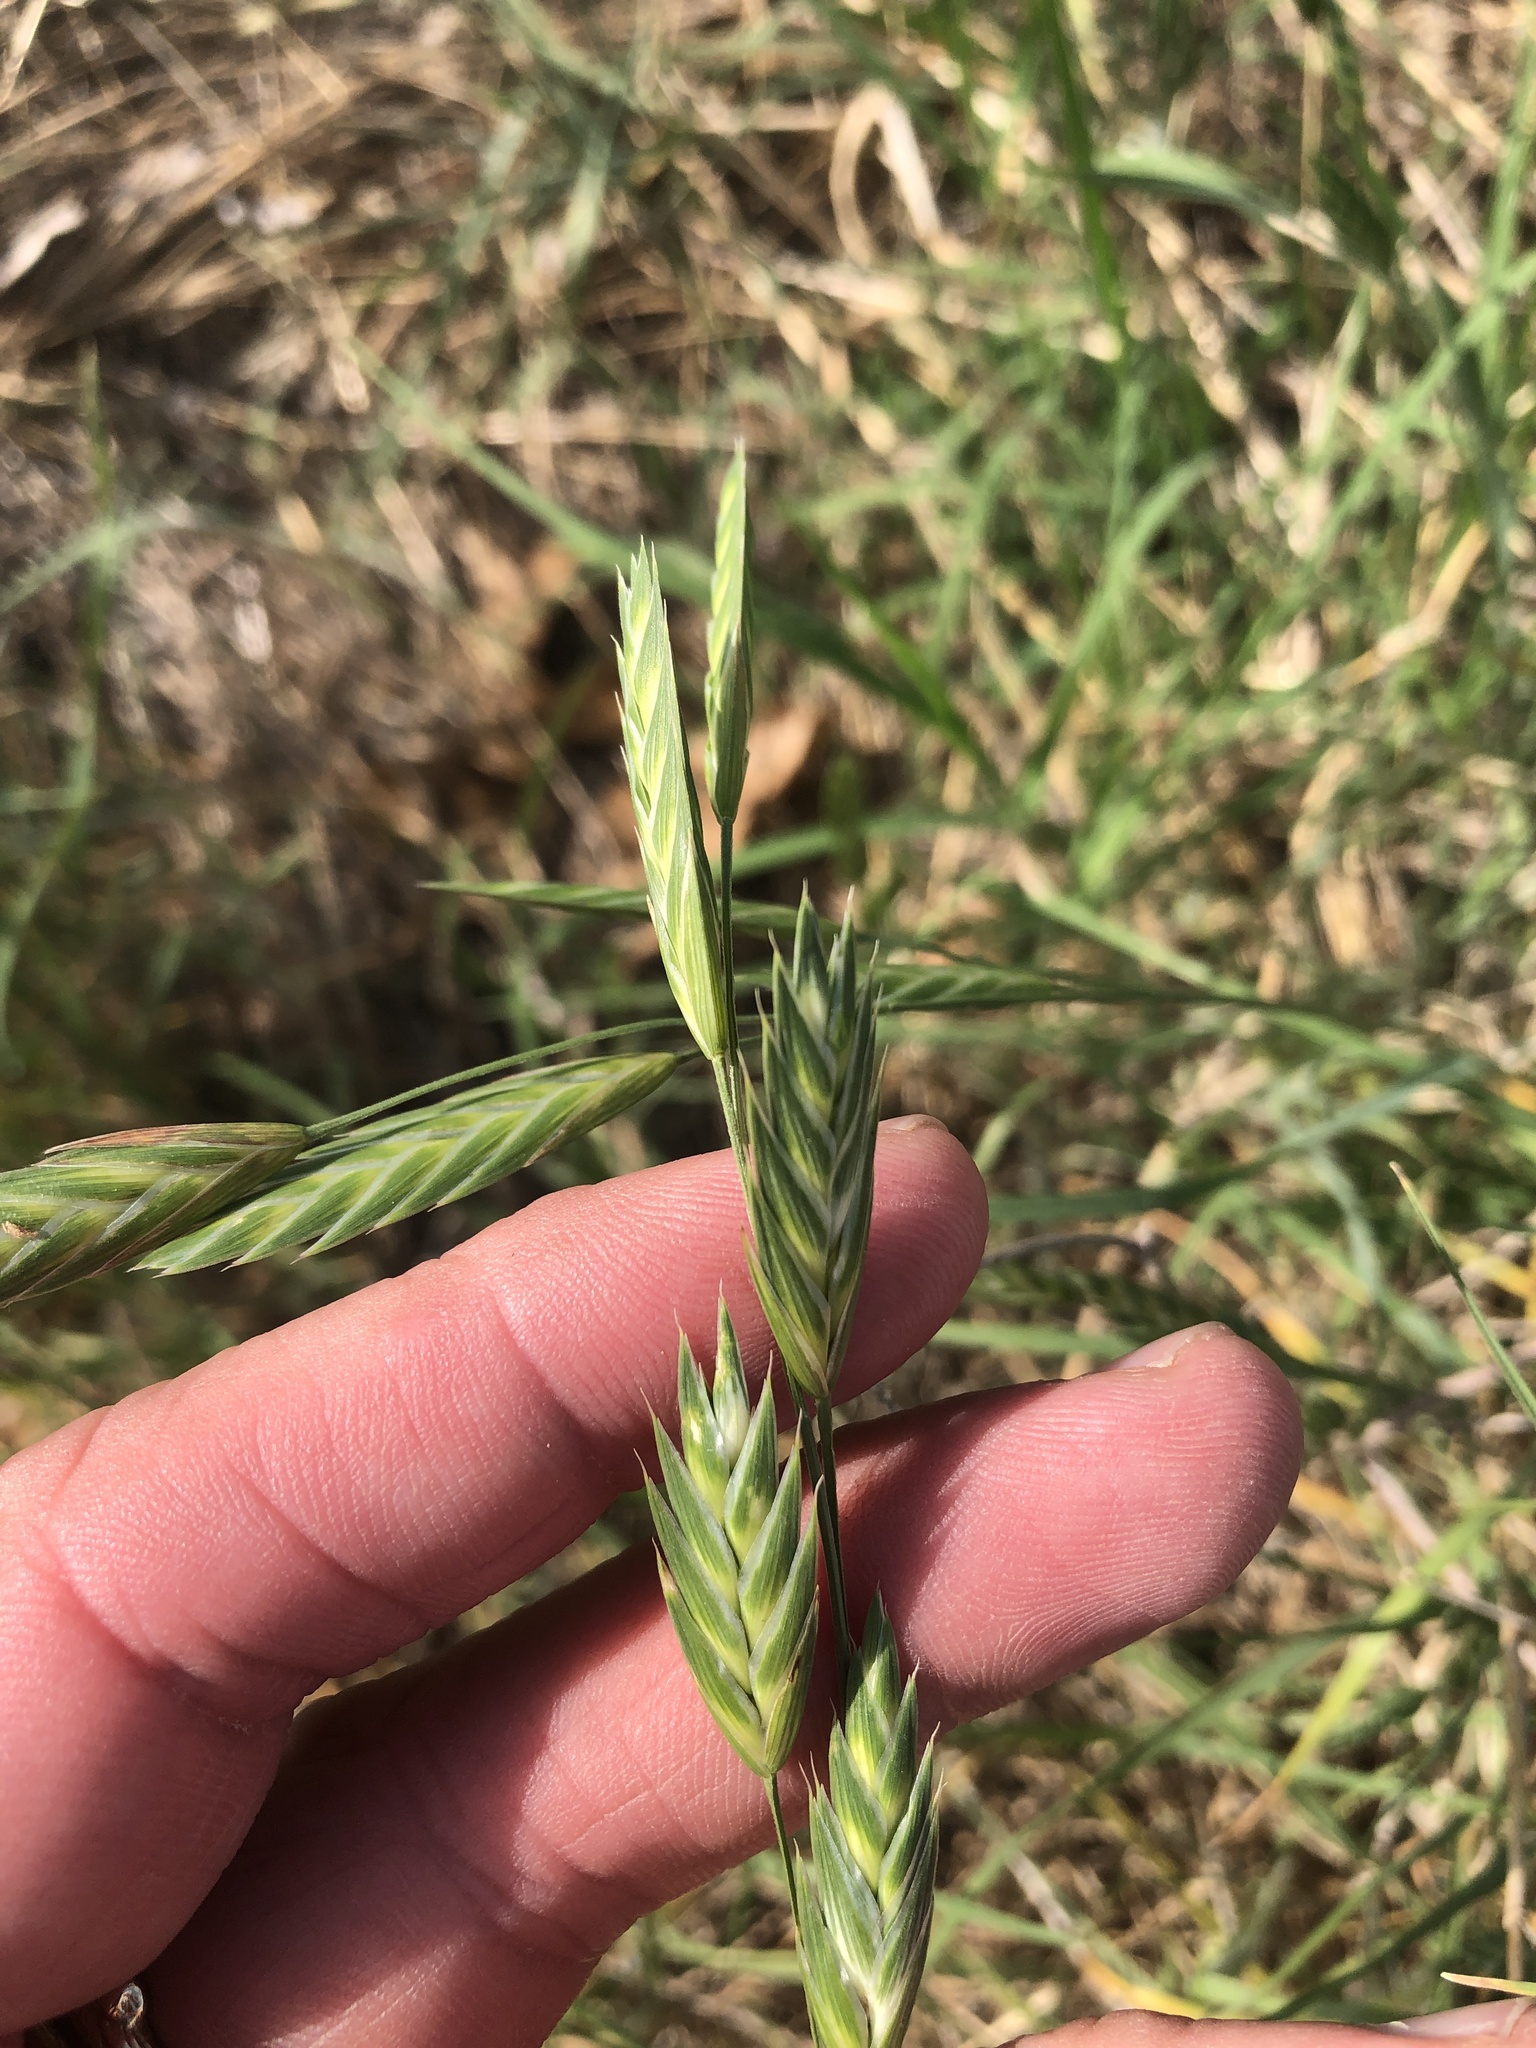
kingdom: Plantae
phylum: Tracheophyta
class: Liliopsida
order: Poales
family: Poaceae
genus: Bromus
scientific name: Bromus catharticus
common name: Rescuegrass
